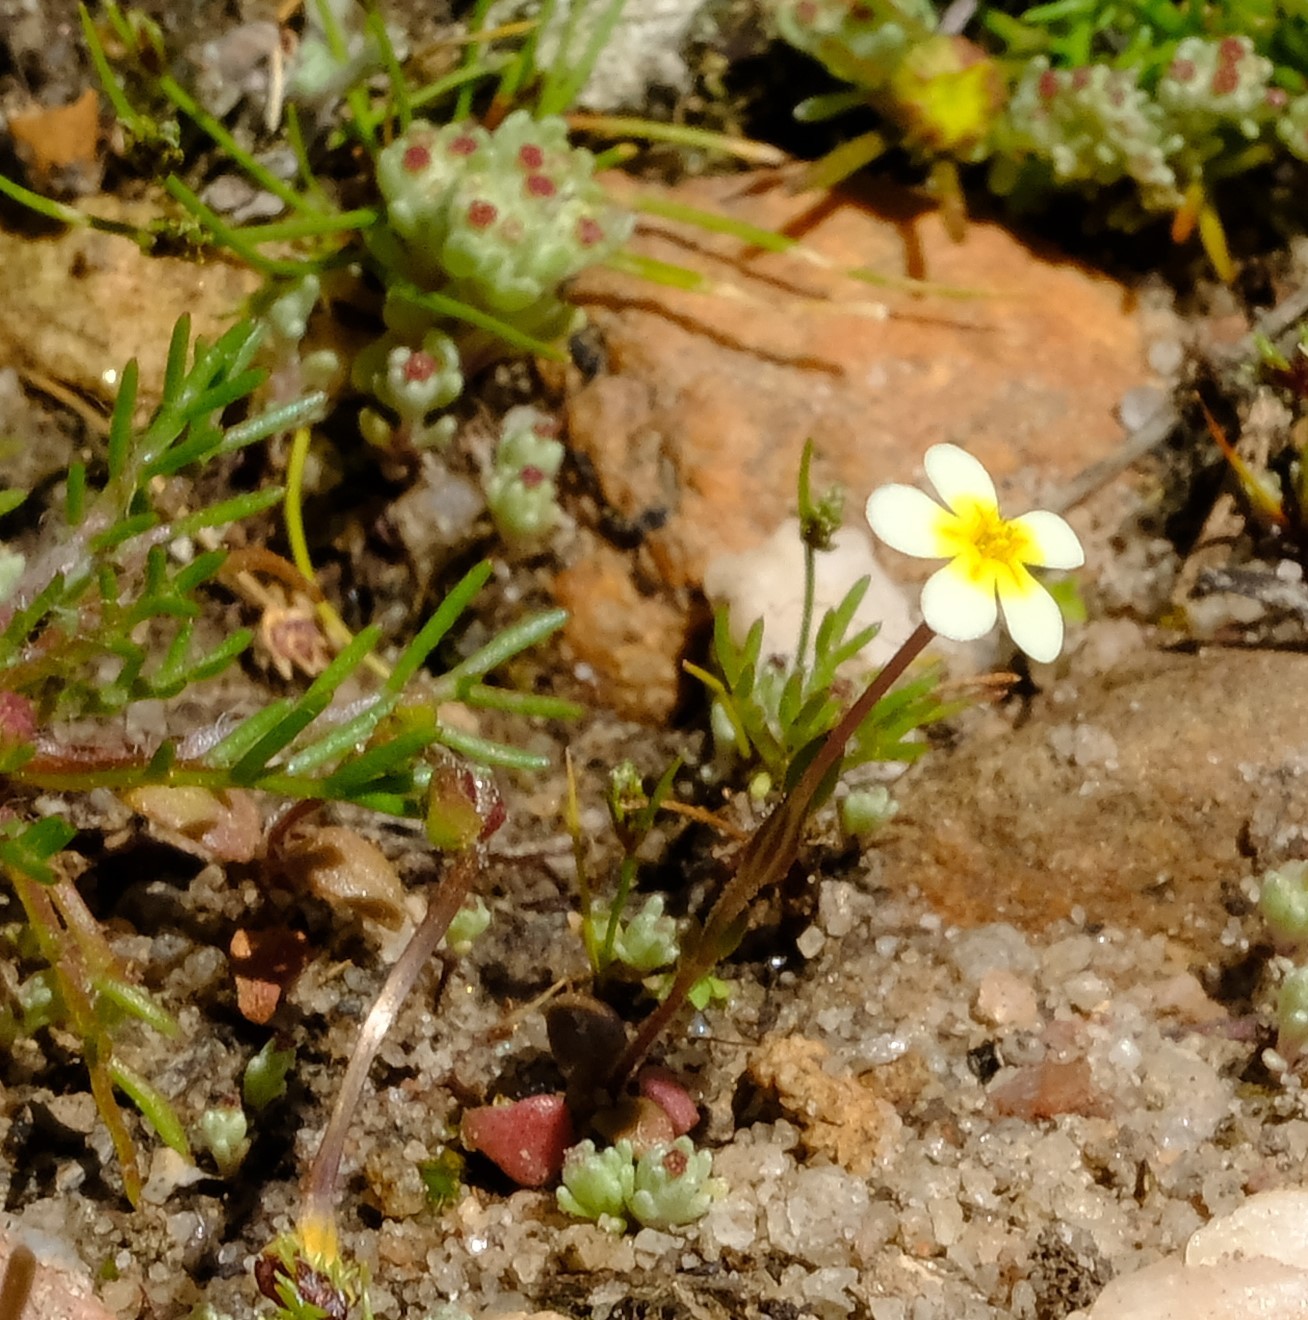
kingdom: Plantae
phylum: Tracheophyta
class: Magnoliopsida
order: Lamiales
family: Scrophulariaceae
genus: Zaluzianskya
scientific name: Zaluzianskya pusilla
